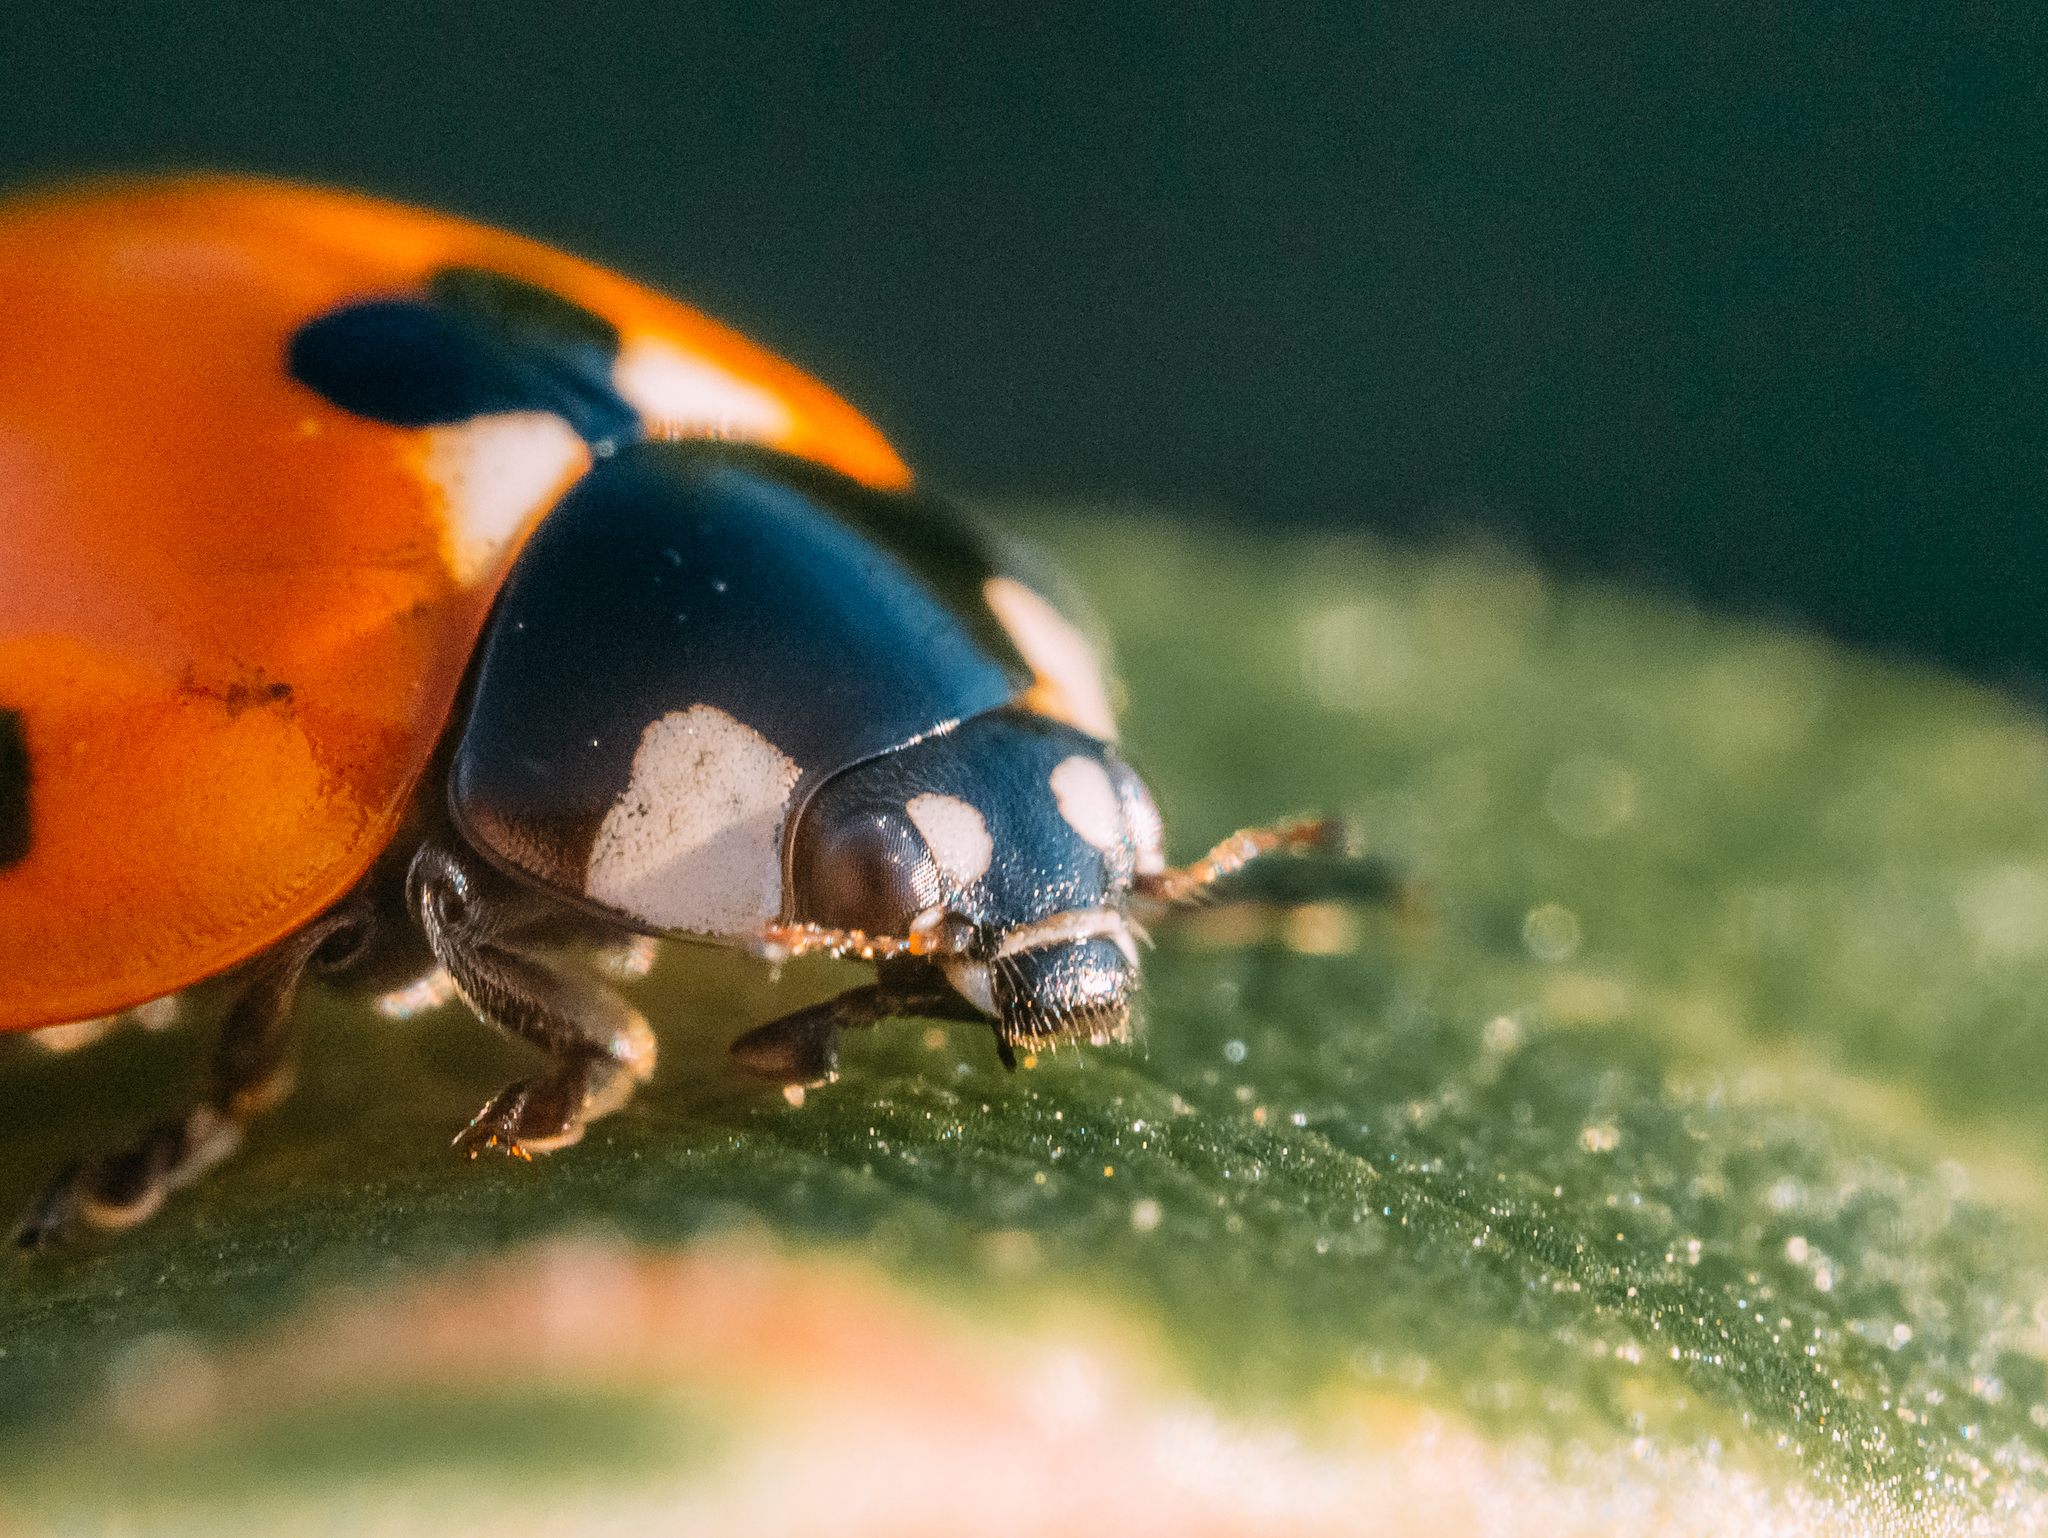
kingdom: Animalia
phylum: Arthropoda
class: Insecta
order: Coleoptera
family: Coccinellidae
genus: Coccinella
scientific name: Coccinella septempunctata
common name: Sevenspotted lady beetle
